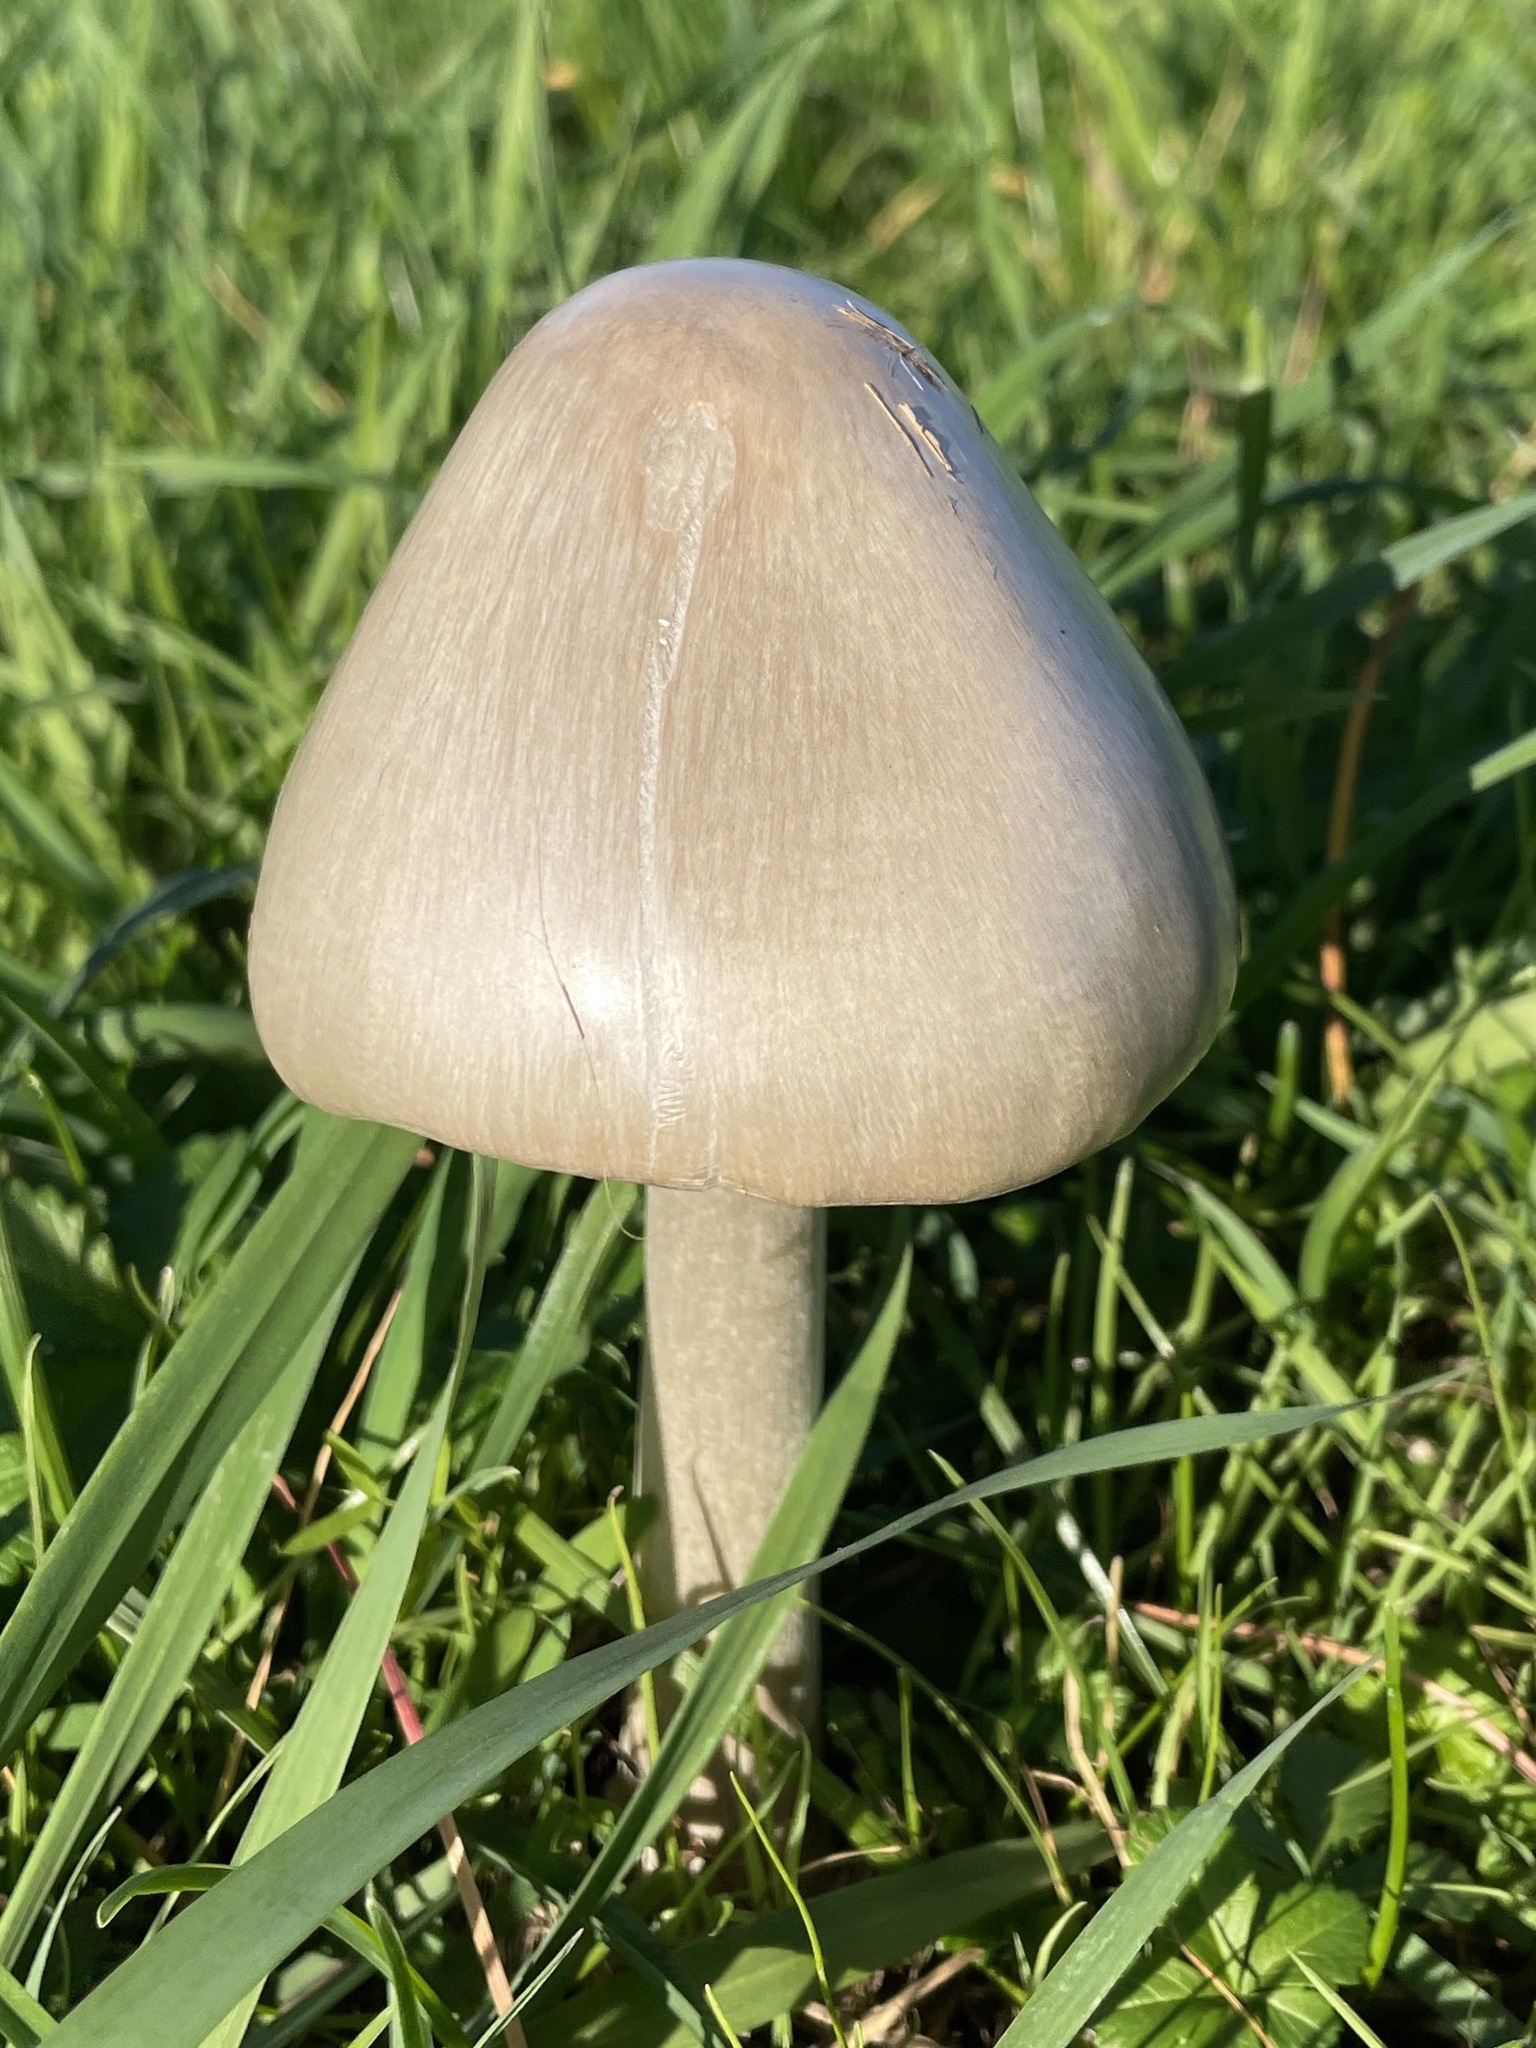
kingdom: Fungi
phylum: Basidiomycota
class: Agaricomycetes
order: Agaricales
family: Pluteaceae
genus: Volvopluteus
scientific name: Volvopluteus gloiocephalus
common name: Stubble rosegill
